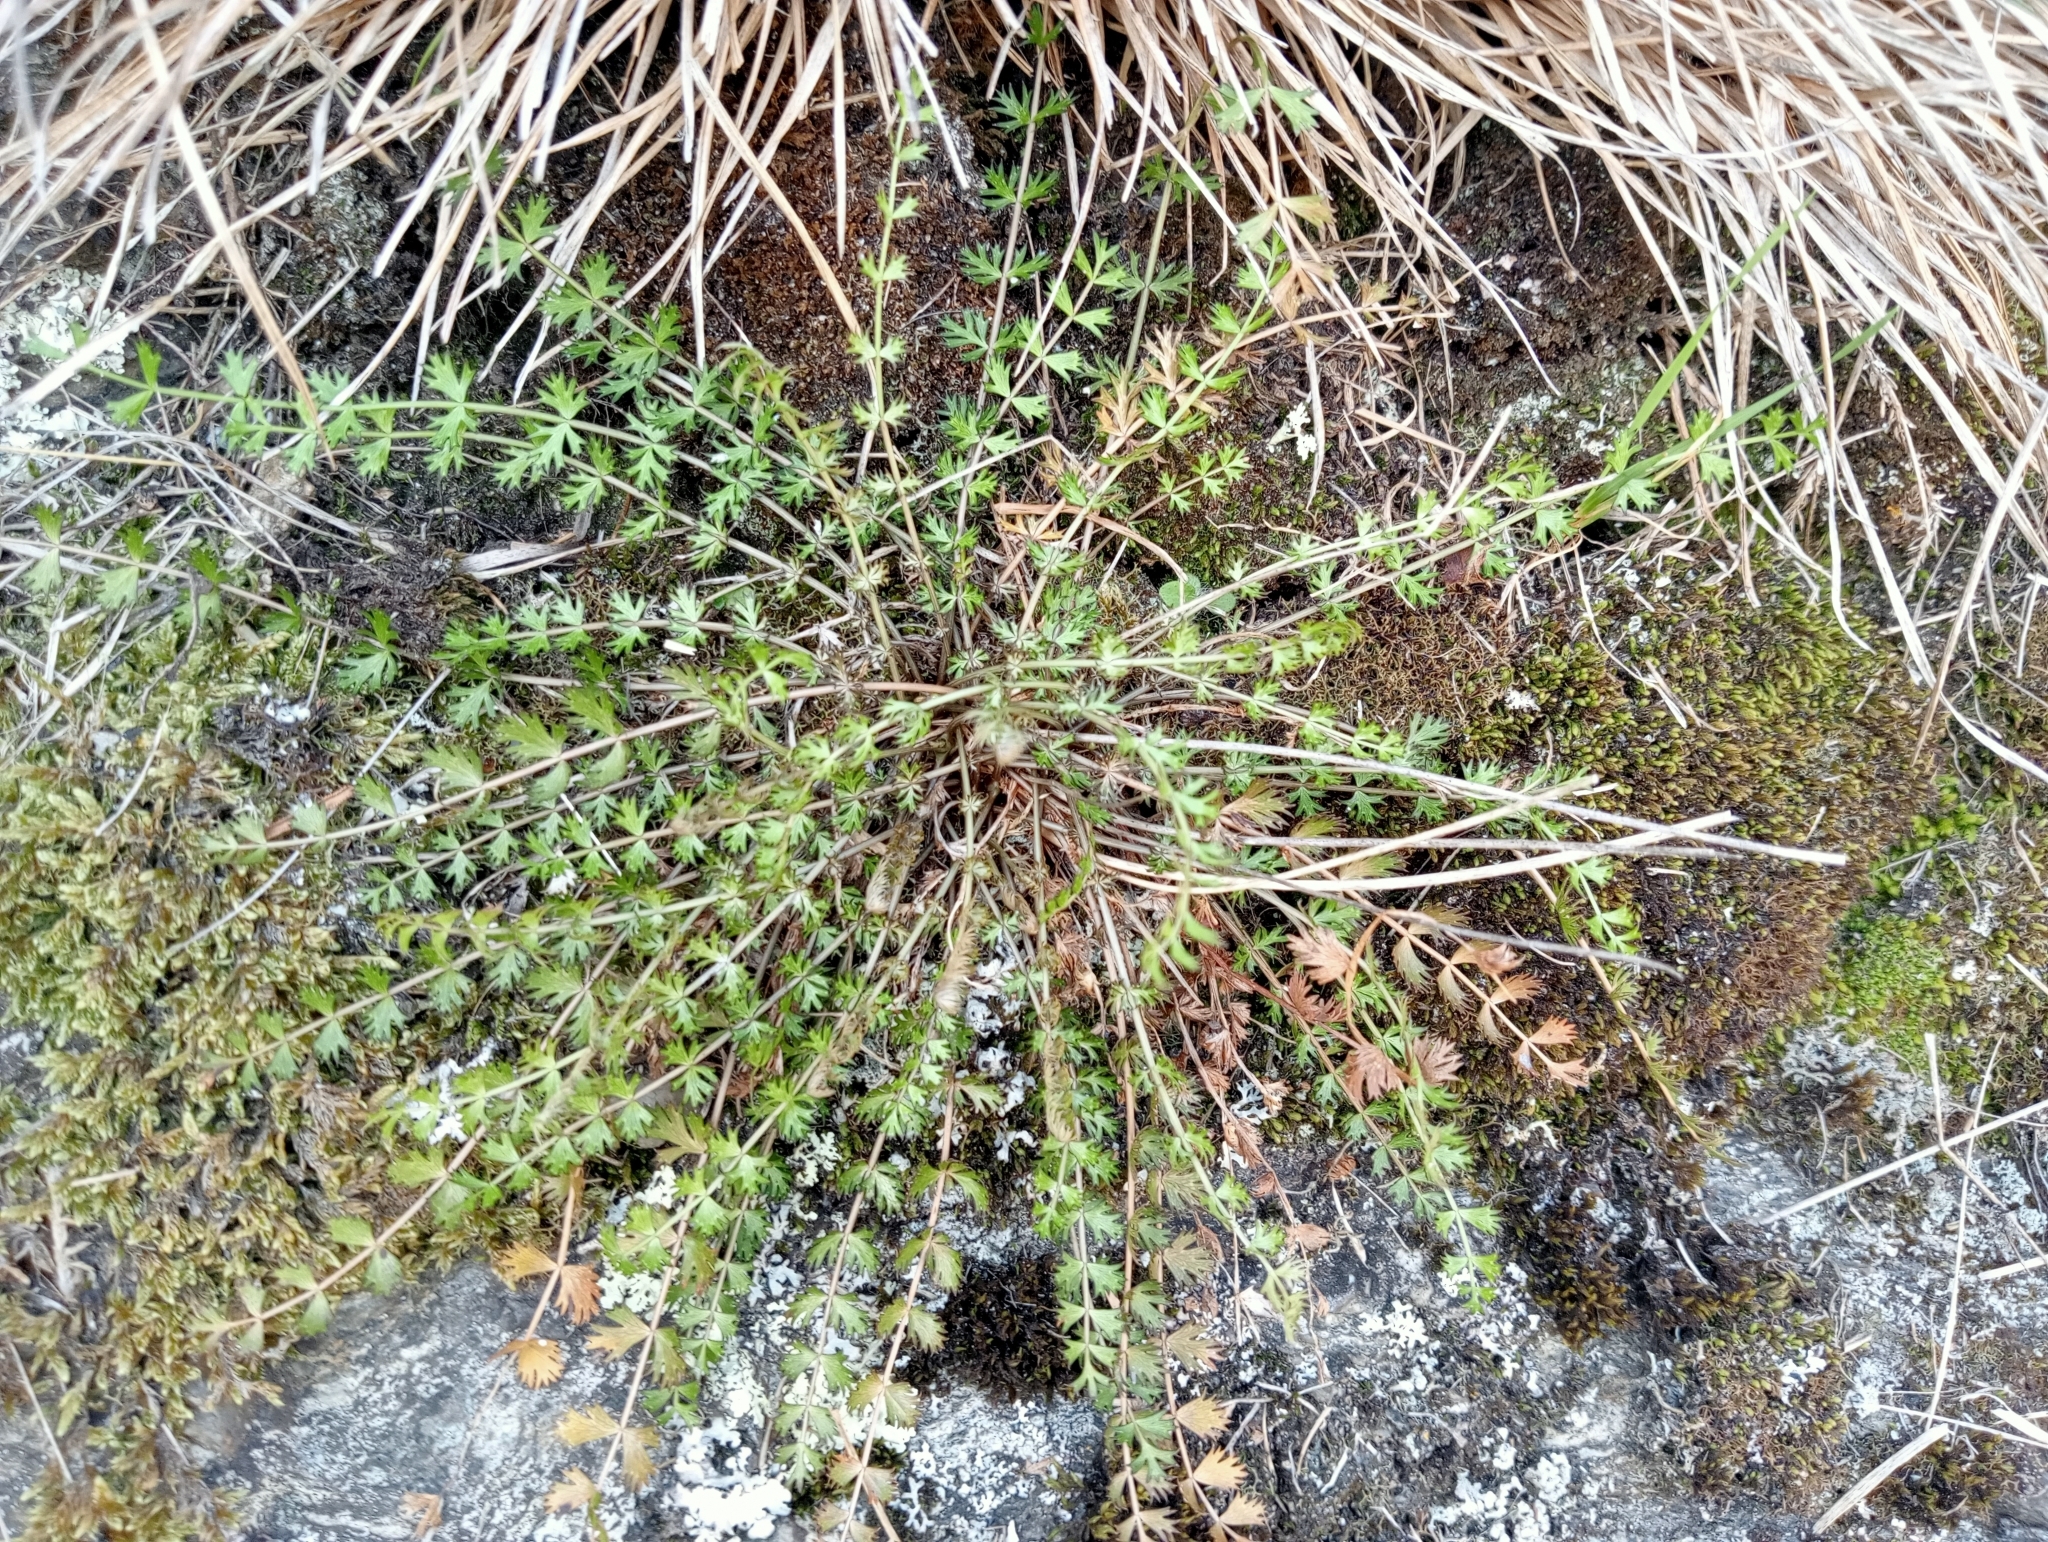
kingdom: Plantae
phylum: Tracheophyta
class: Magnoliopsida
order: Apiales
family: Apiaceae
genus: Anisotome
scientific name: Anisotome aromatica
